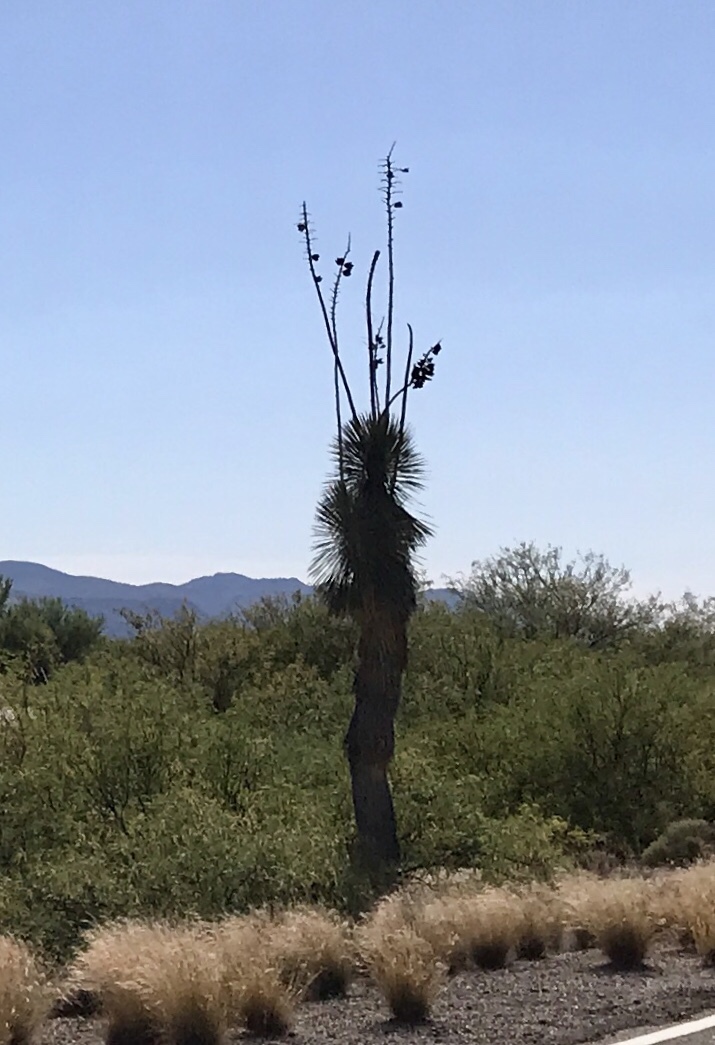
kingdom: Plantae
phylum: Tracheophyta
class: Liliopsida
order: Asparagales
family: Asparagaceae
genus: Yucca
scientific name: Yucca elata
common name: Palmella
